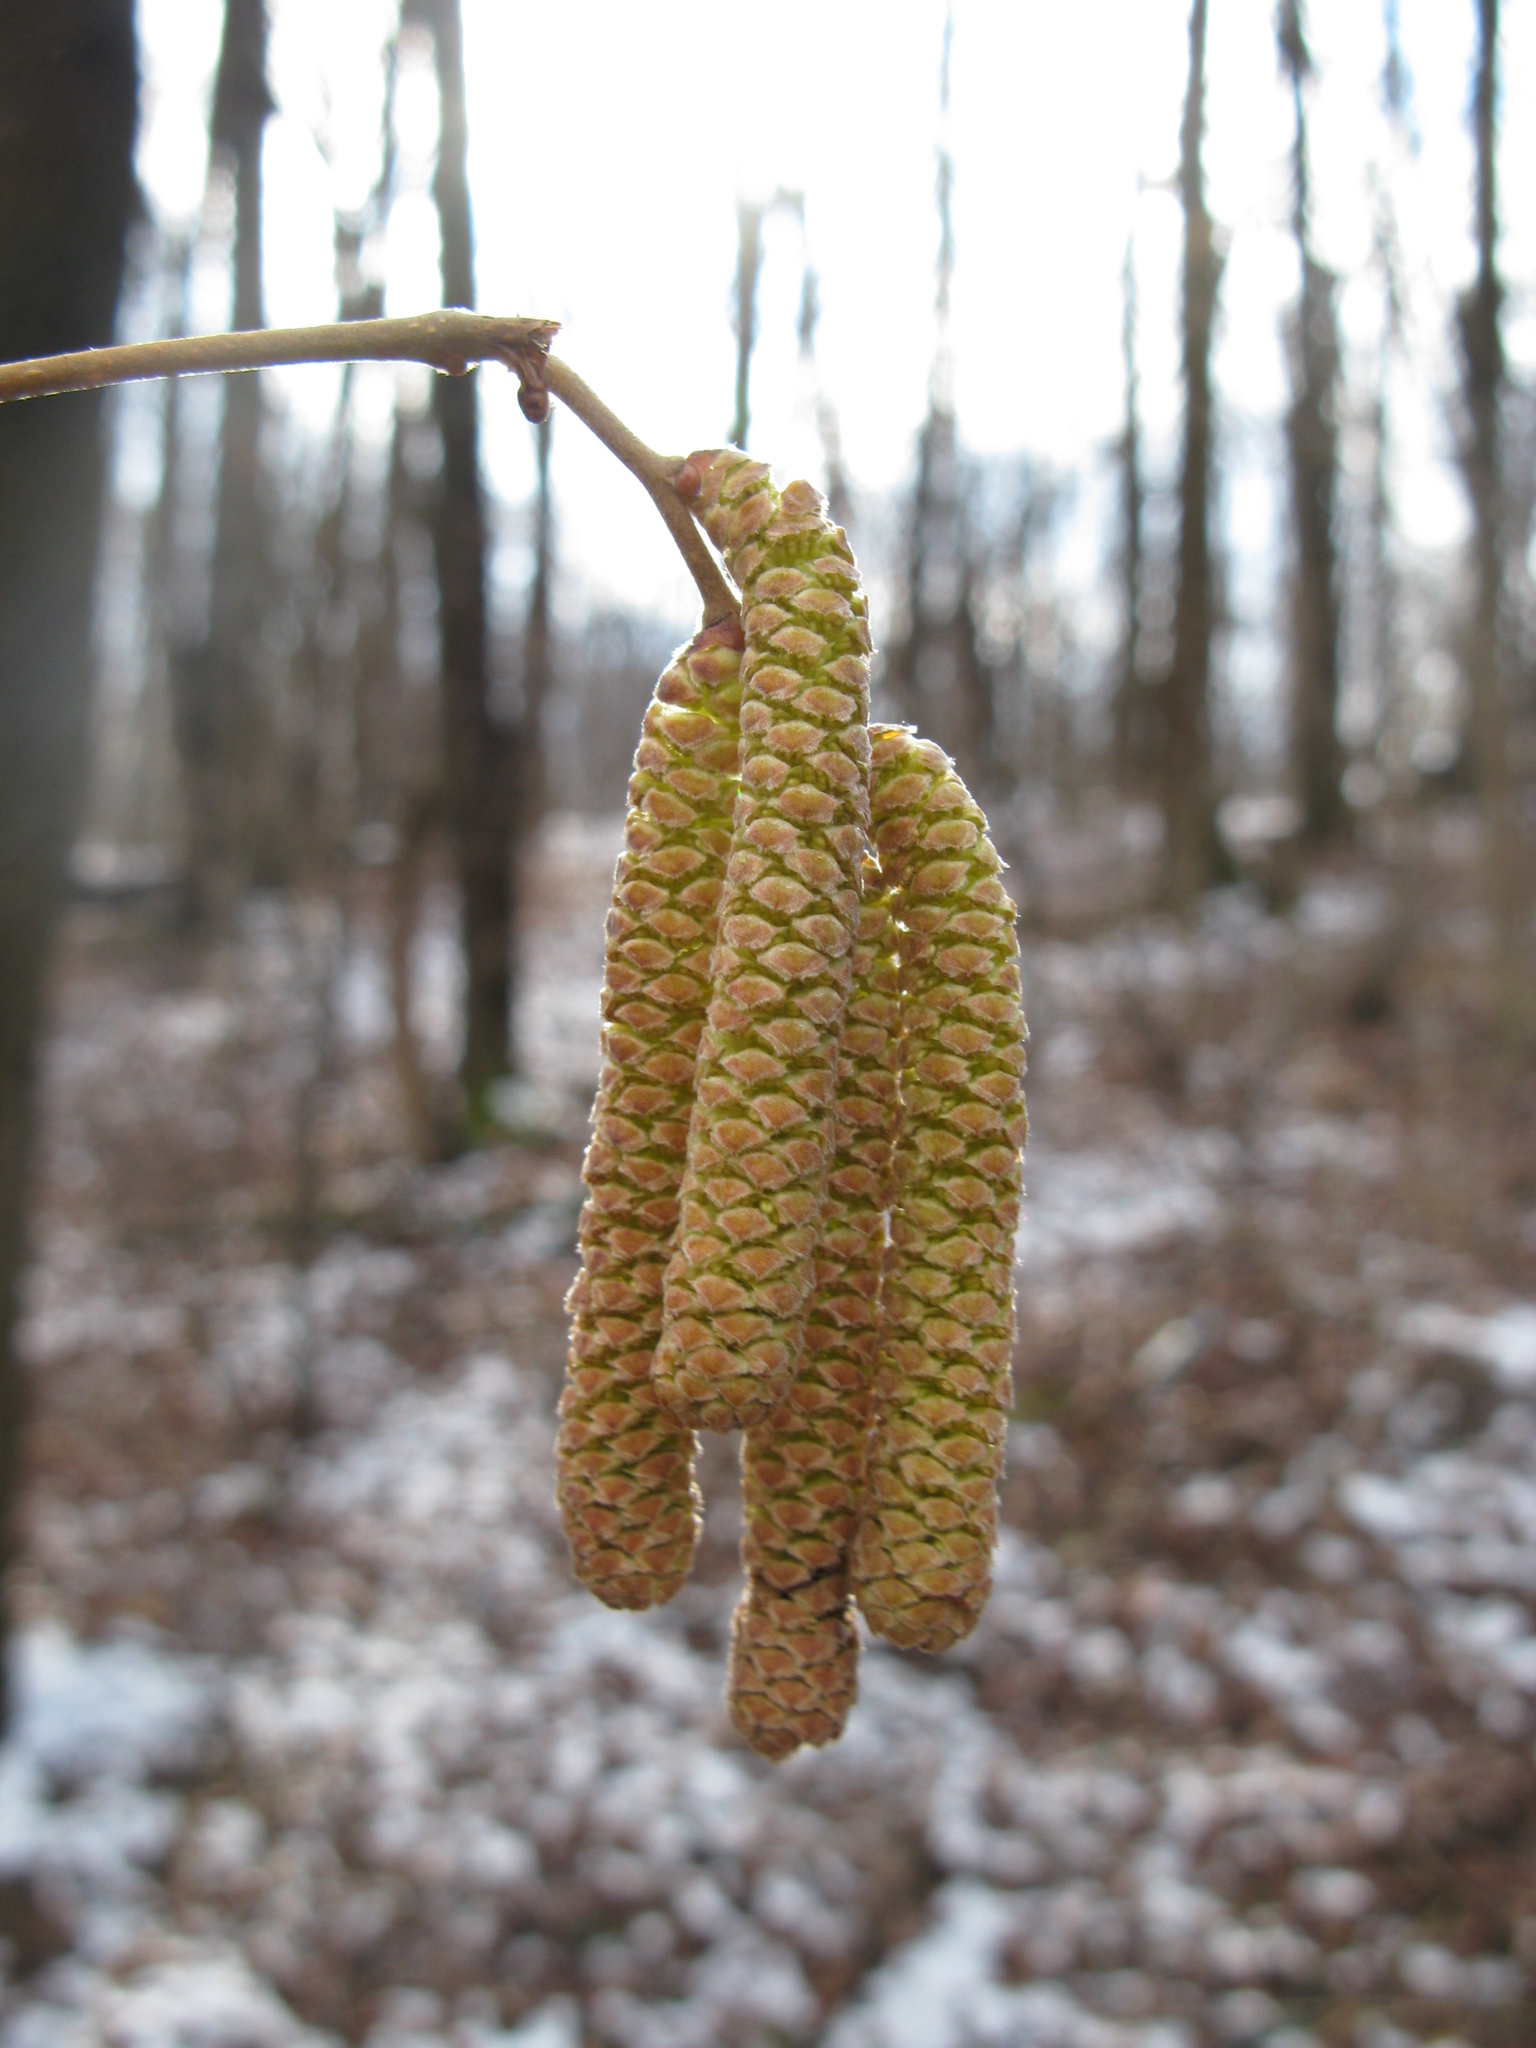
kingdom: Plantae
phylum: Tracheophyta
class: Magnoliopsida
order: Fagales
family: Betulaceae
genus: Corylus
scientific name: Corylus avellana
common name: European hazel
